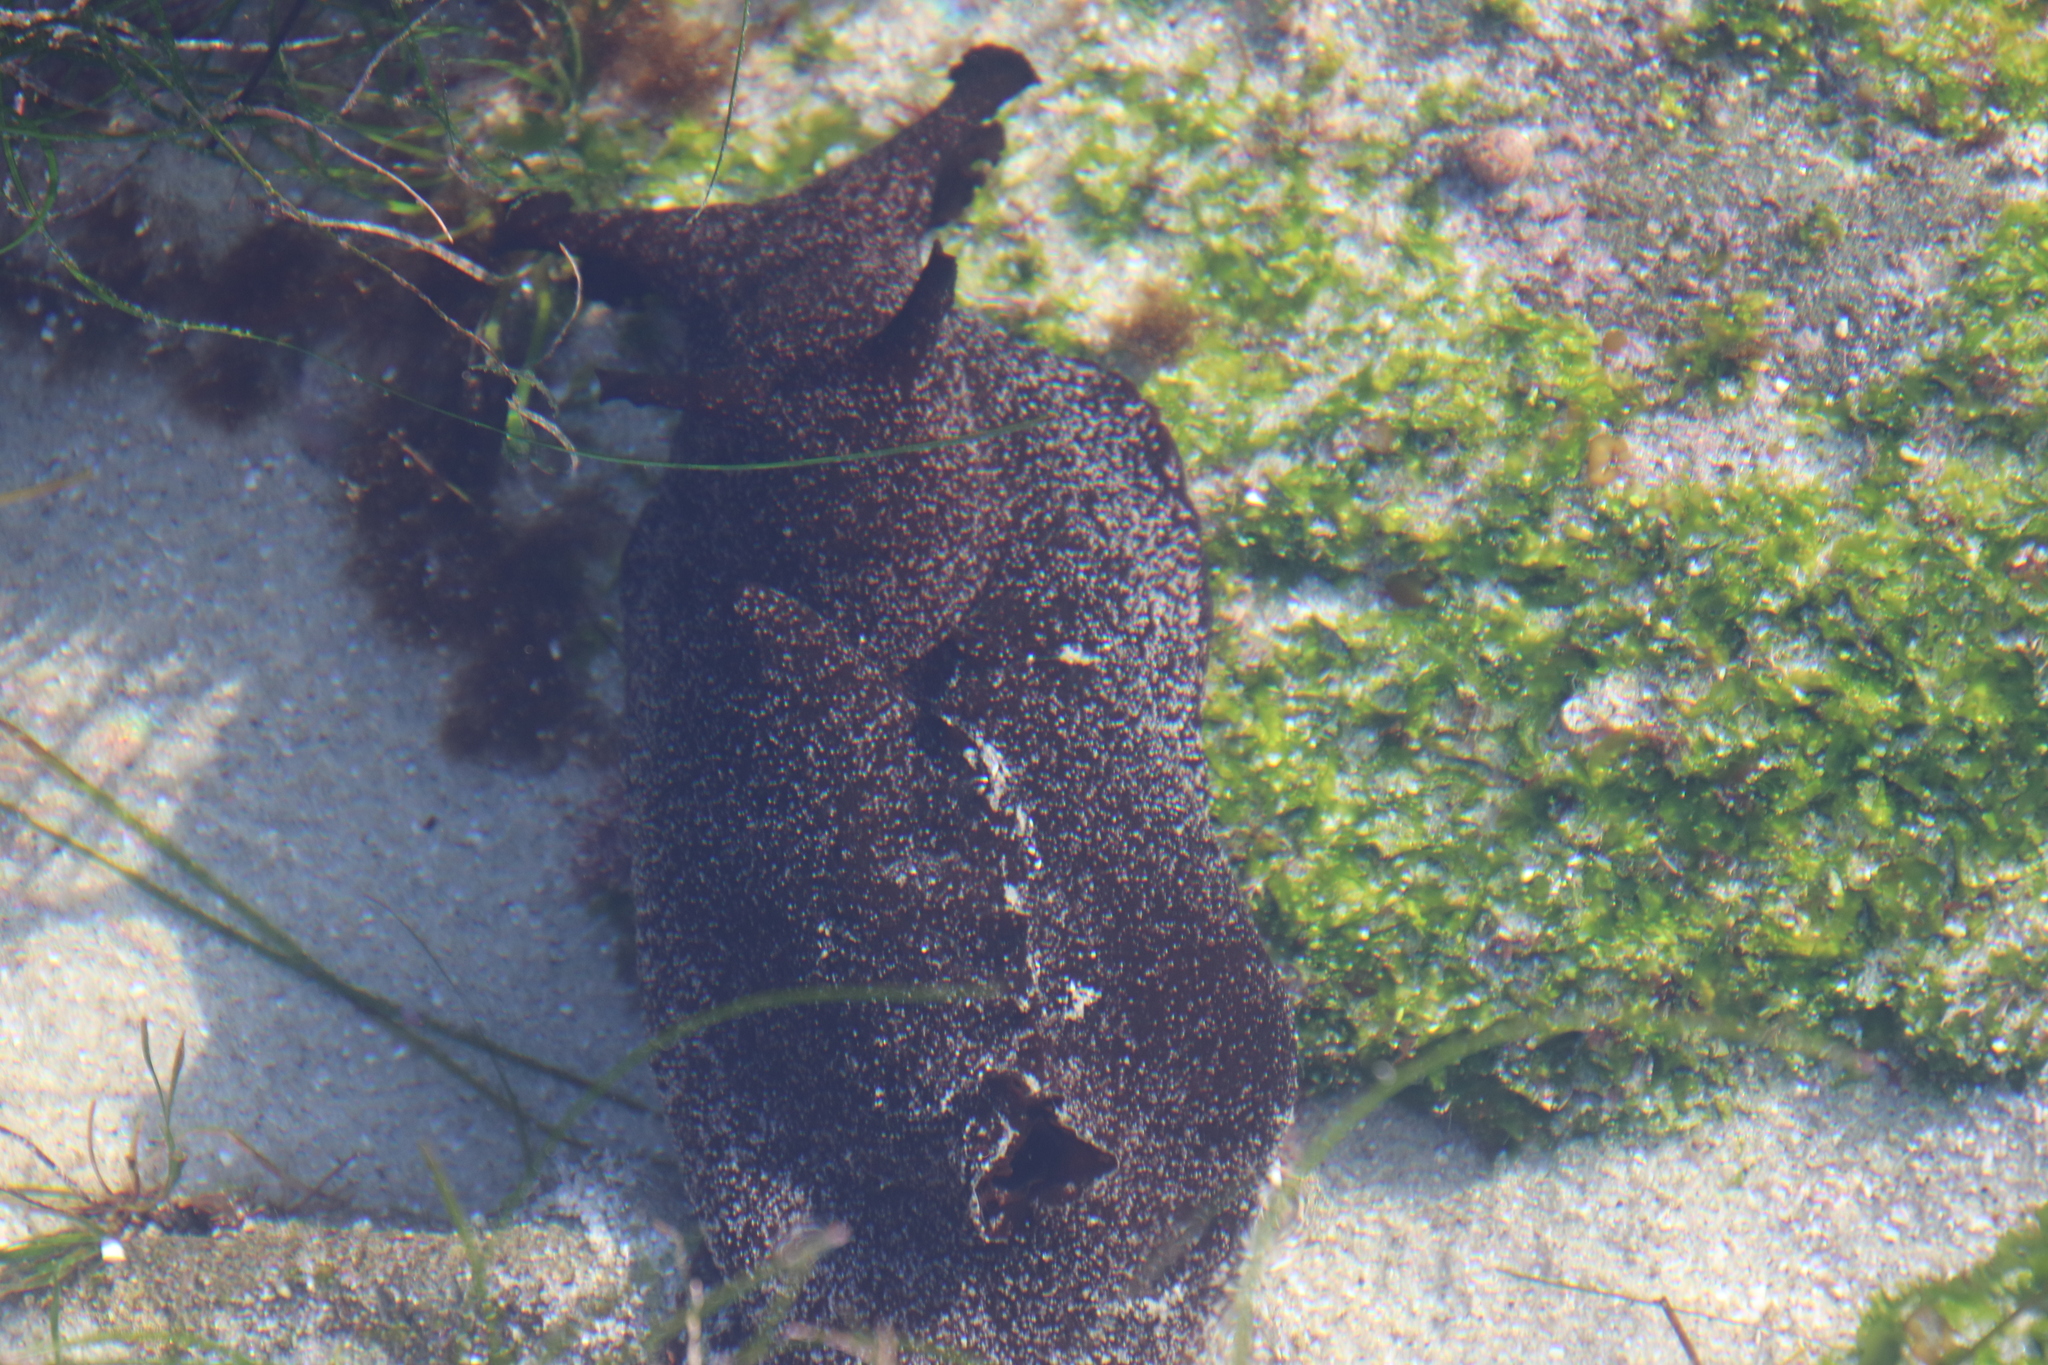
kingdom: Animalia
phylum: Mollusca
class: Gastropoda
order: Aplysiida
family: Aplysiidae
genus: Aplysia
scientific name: Aplysia vaccaria
